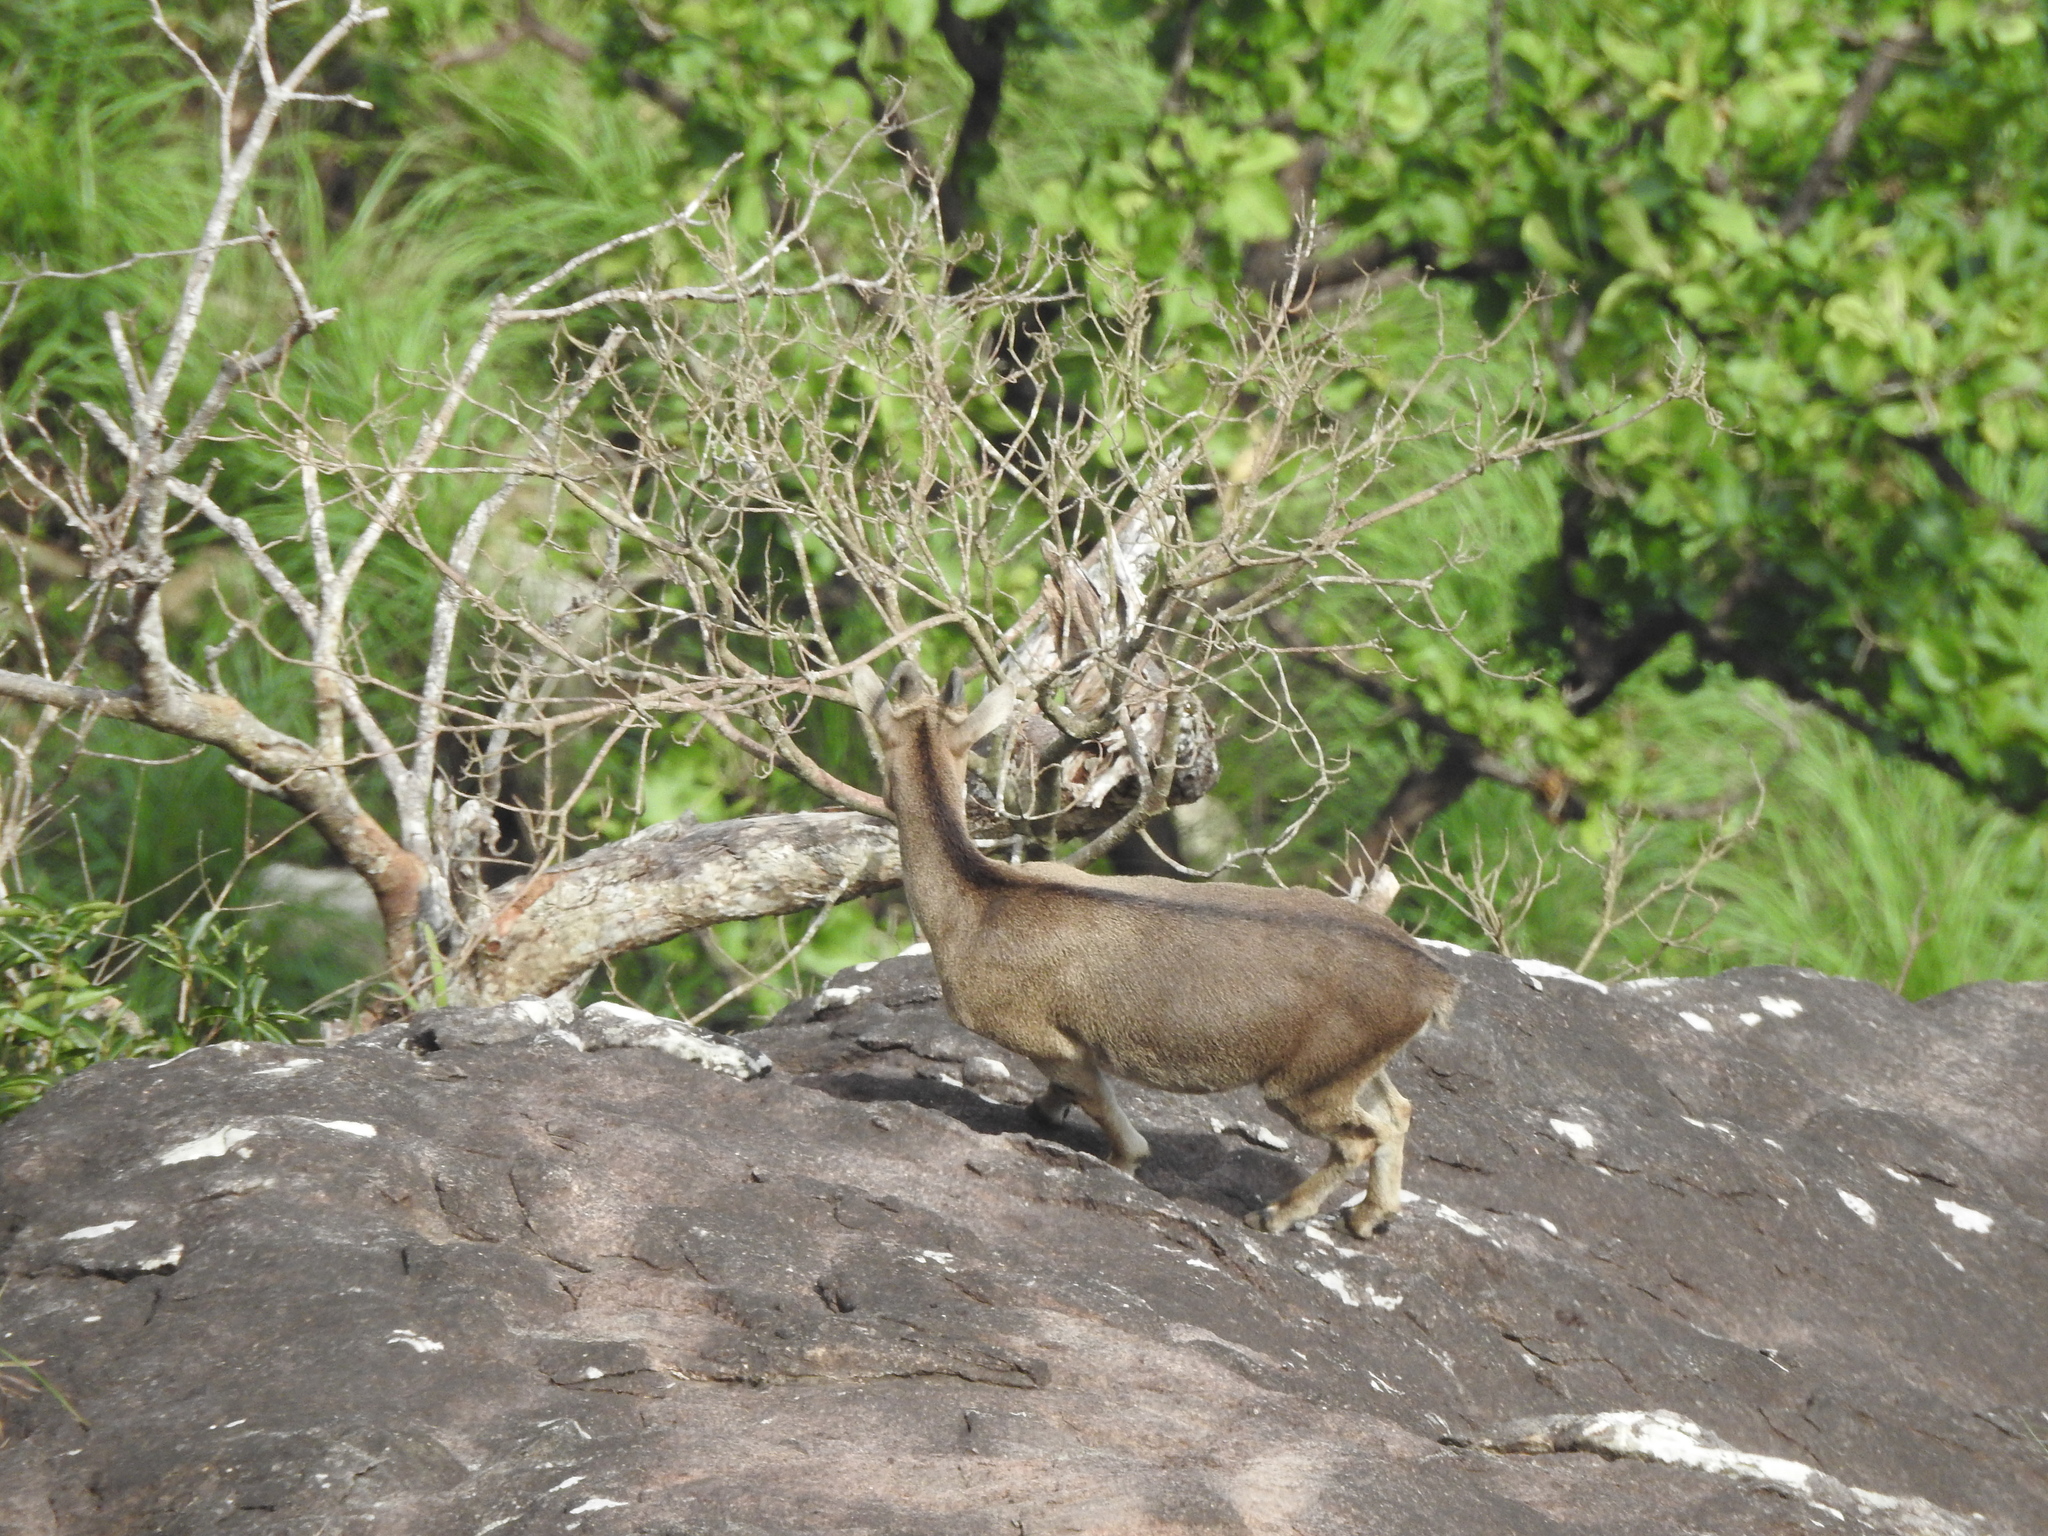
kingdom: Animalia
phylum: Chordata
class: Mammalia
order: Artiodactyla
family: Bovidae
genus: Hemitragus
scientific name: Hemitragus hylocrius
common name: Nilgiri tahr
